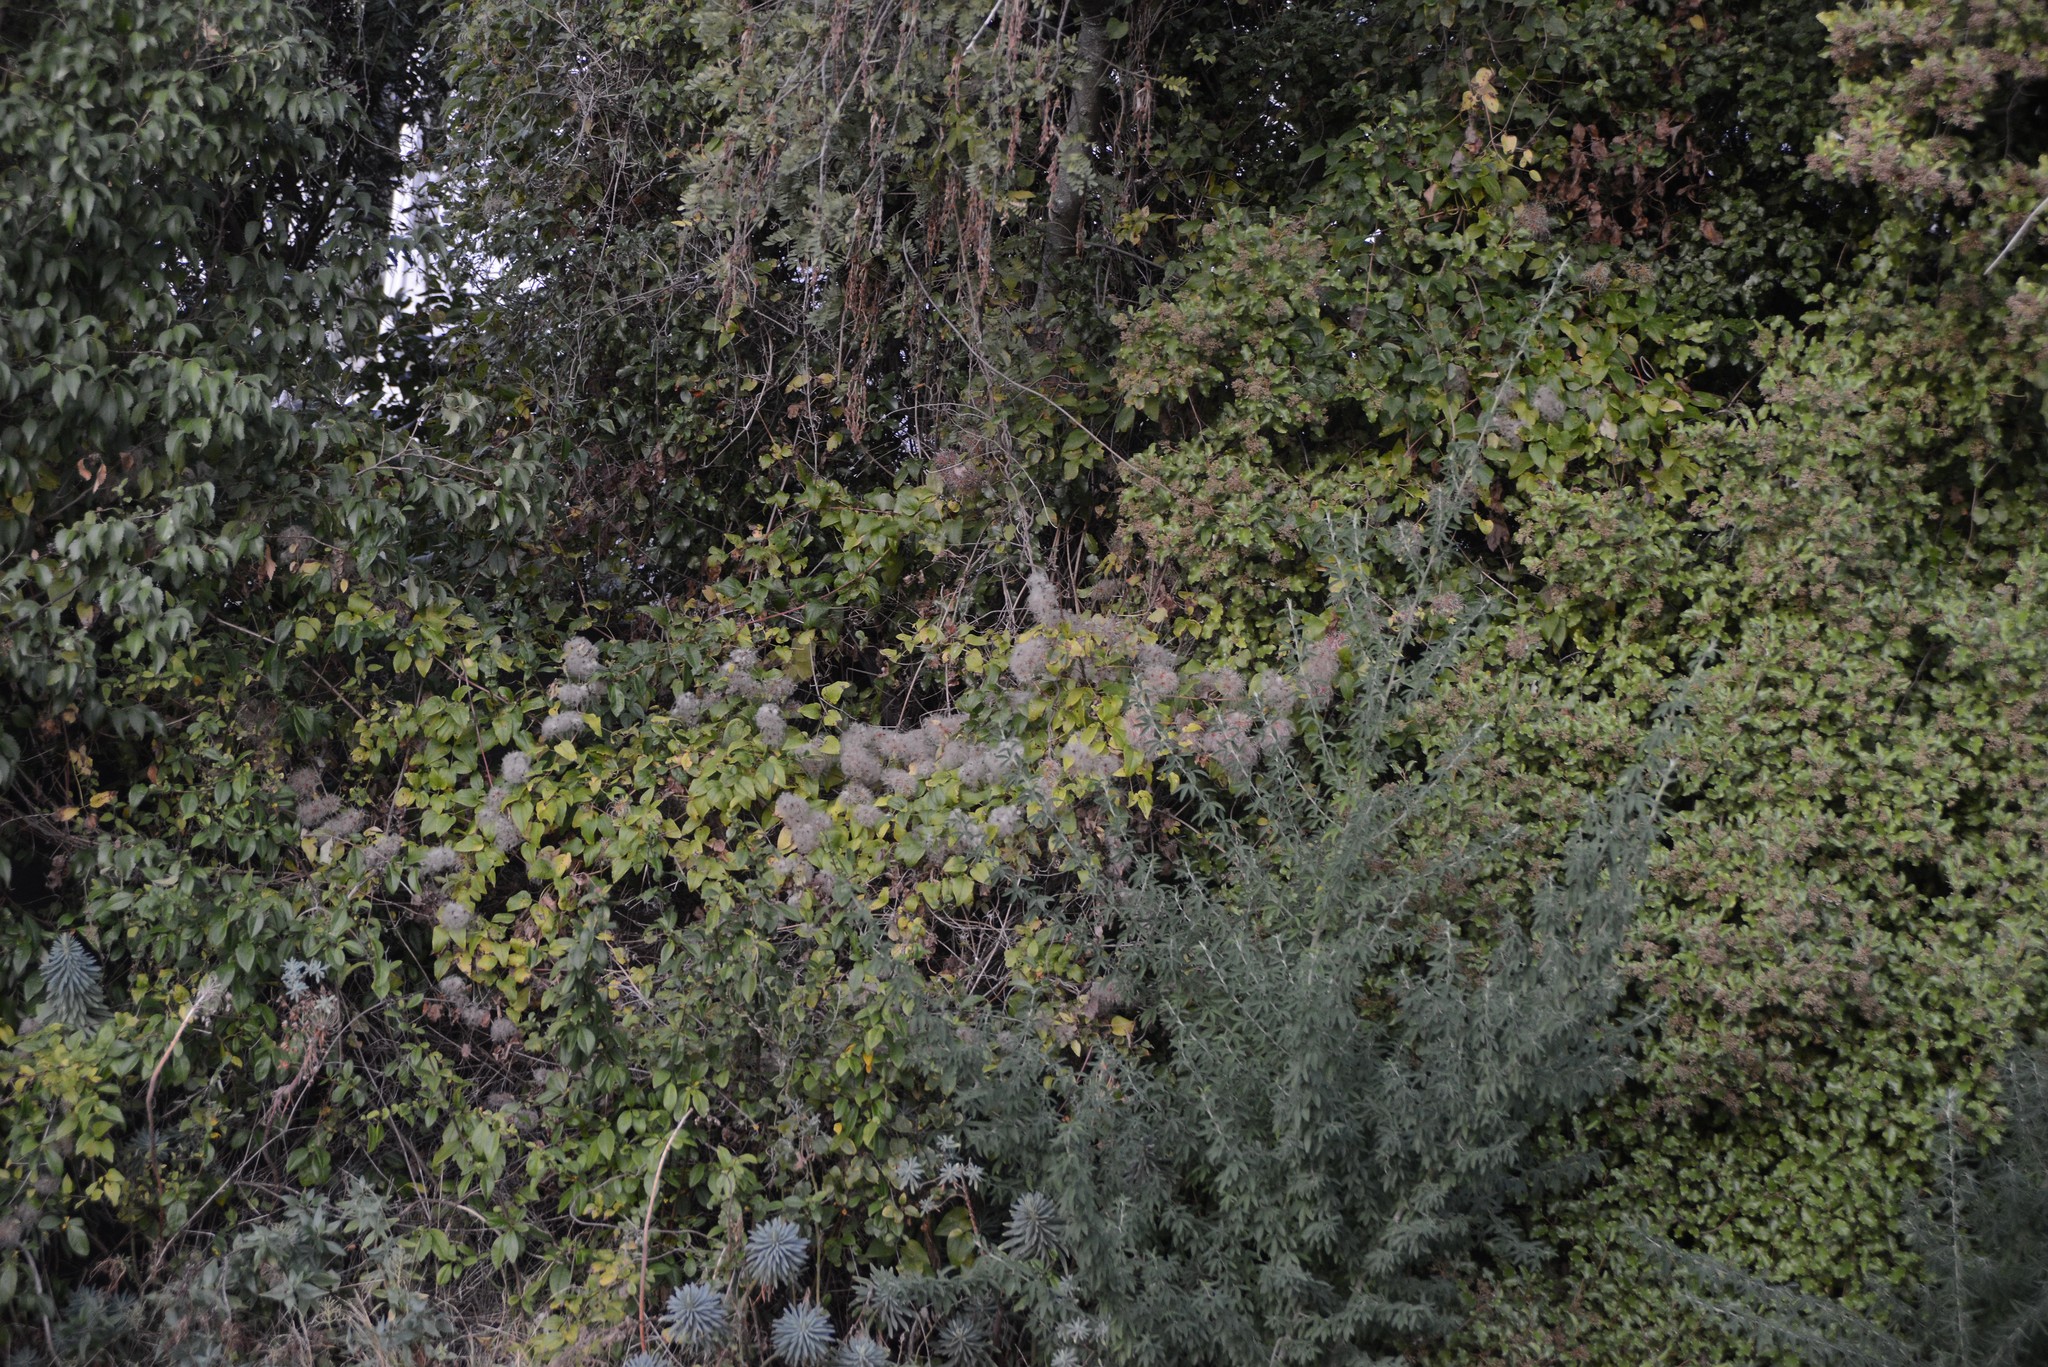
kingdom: Plantae
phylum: Tracheophyta
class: Magnoliopsida
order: Ranunculales
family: Ranunculaceae
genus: Clematis
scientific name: Clematis vitalba
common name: Evergreen clematis
